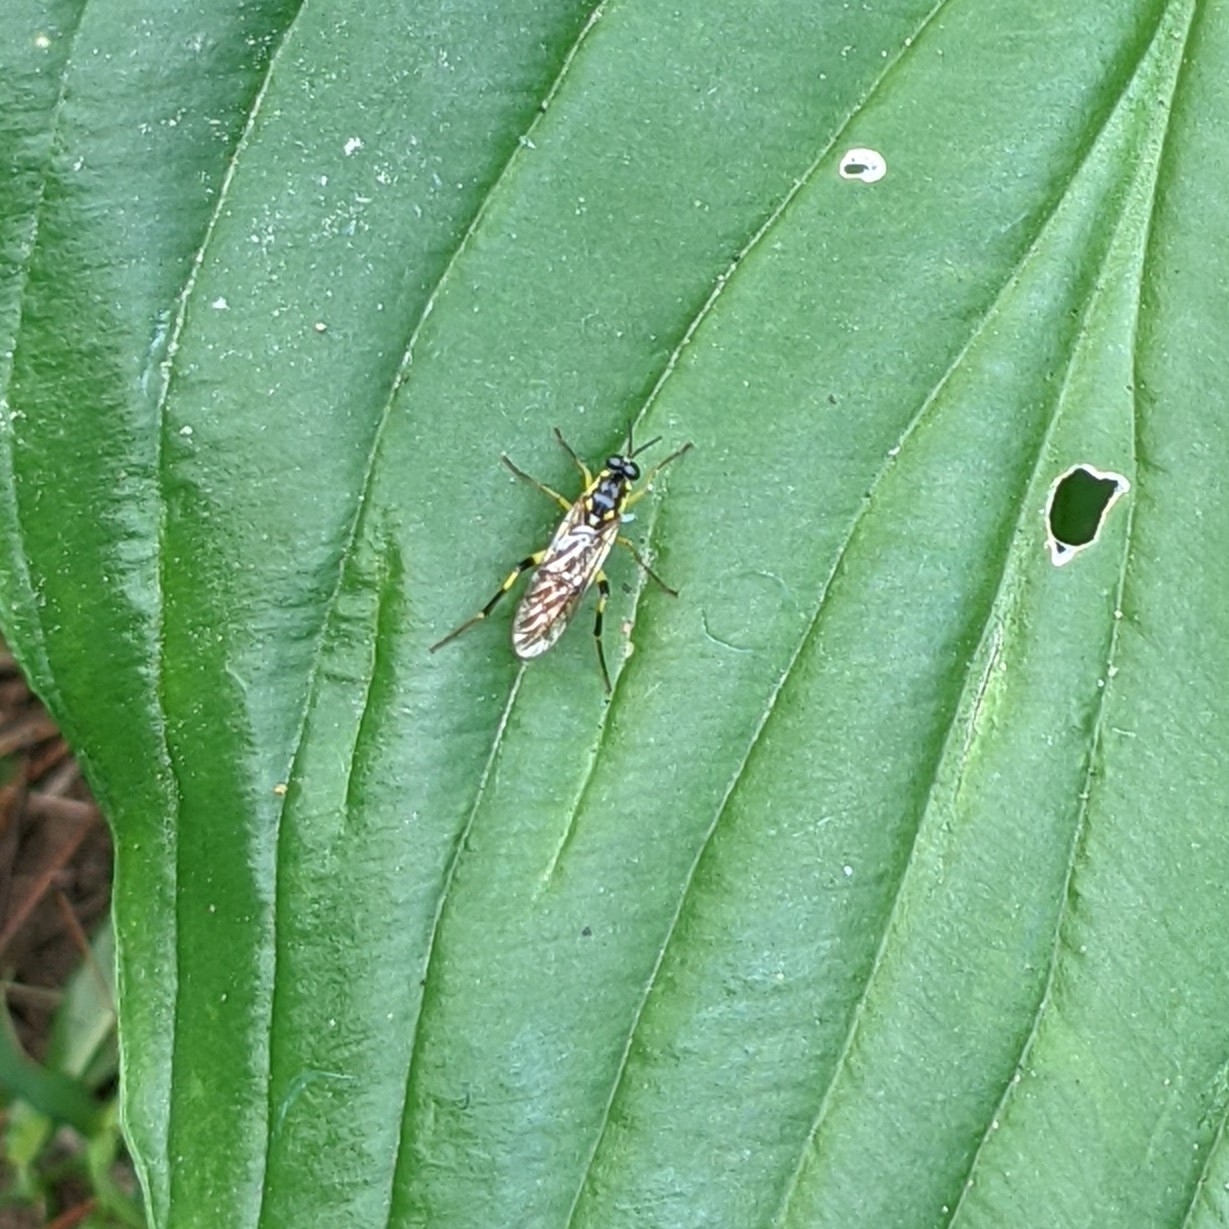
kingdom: Animalia
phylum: Arthropoda
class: Insecta
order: Diptera
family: Xylomyidae
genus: Xylomya
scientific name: Xylomya simillima
